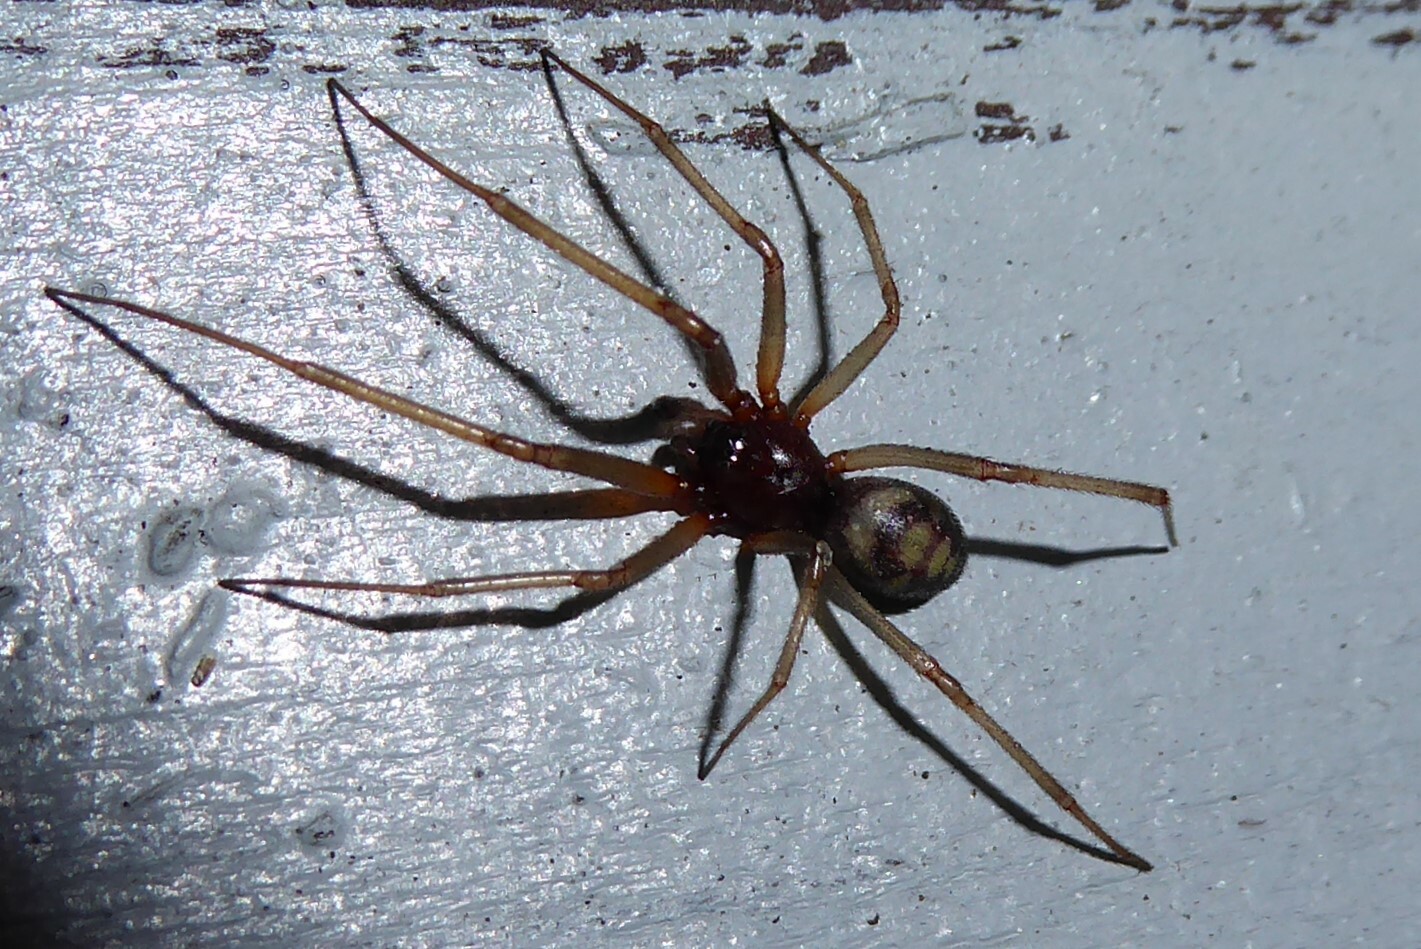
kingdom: Animalia
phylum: Arthropoda
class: Arachnida
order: Araneae
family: Theridiidae
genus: Steatoda
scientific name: Steatoda grossa
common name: False black widow
